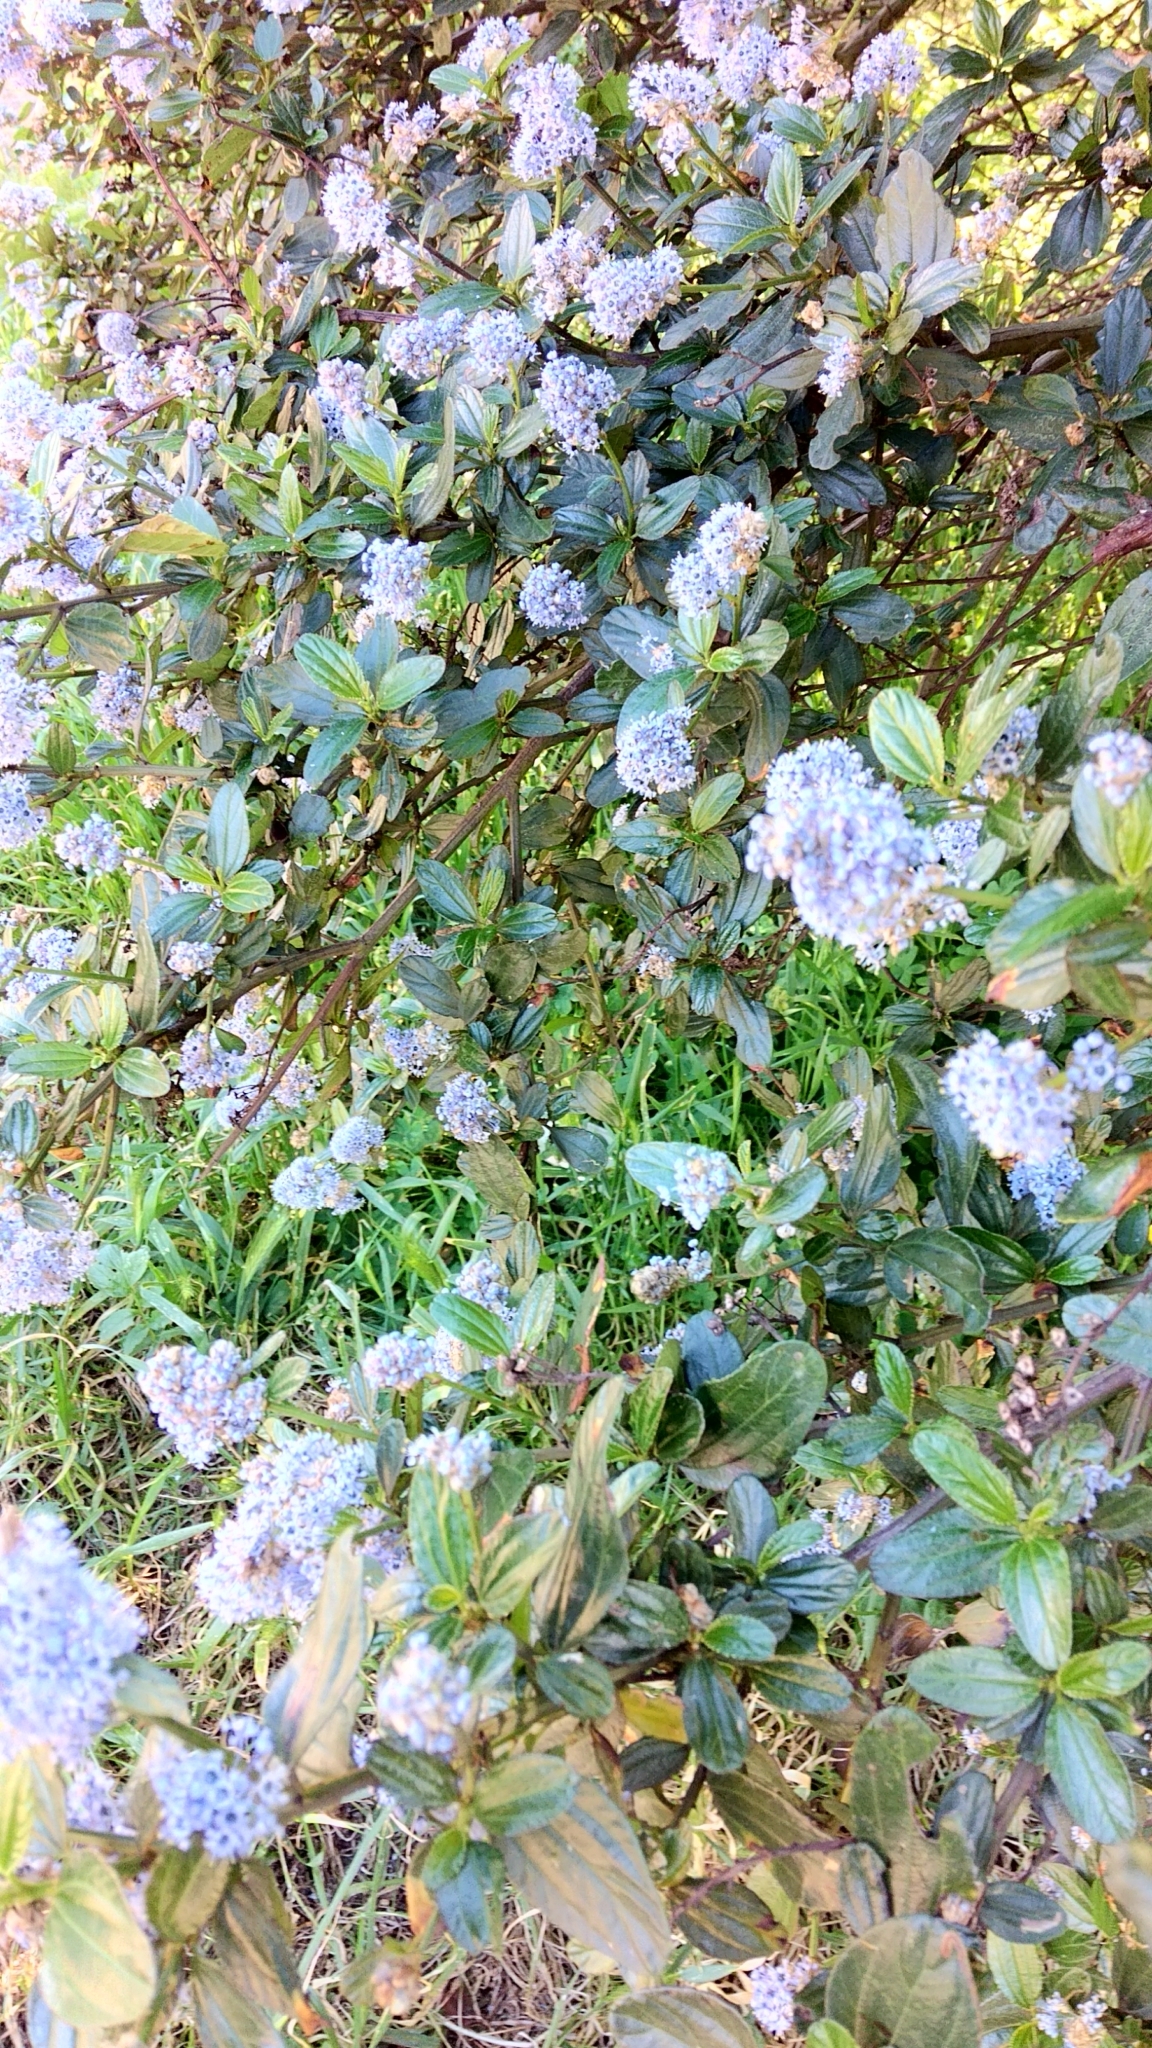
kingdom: Plantae
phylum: Tracheophyta
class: Magnoliopsida
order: Rosales
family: Rhamnaceae
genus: Ceanothus
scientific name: Ceanothus thyrsiflorus
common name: California-lilac
